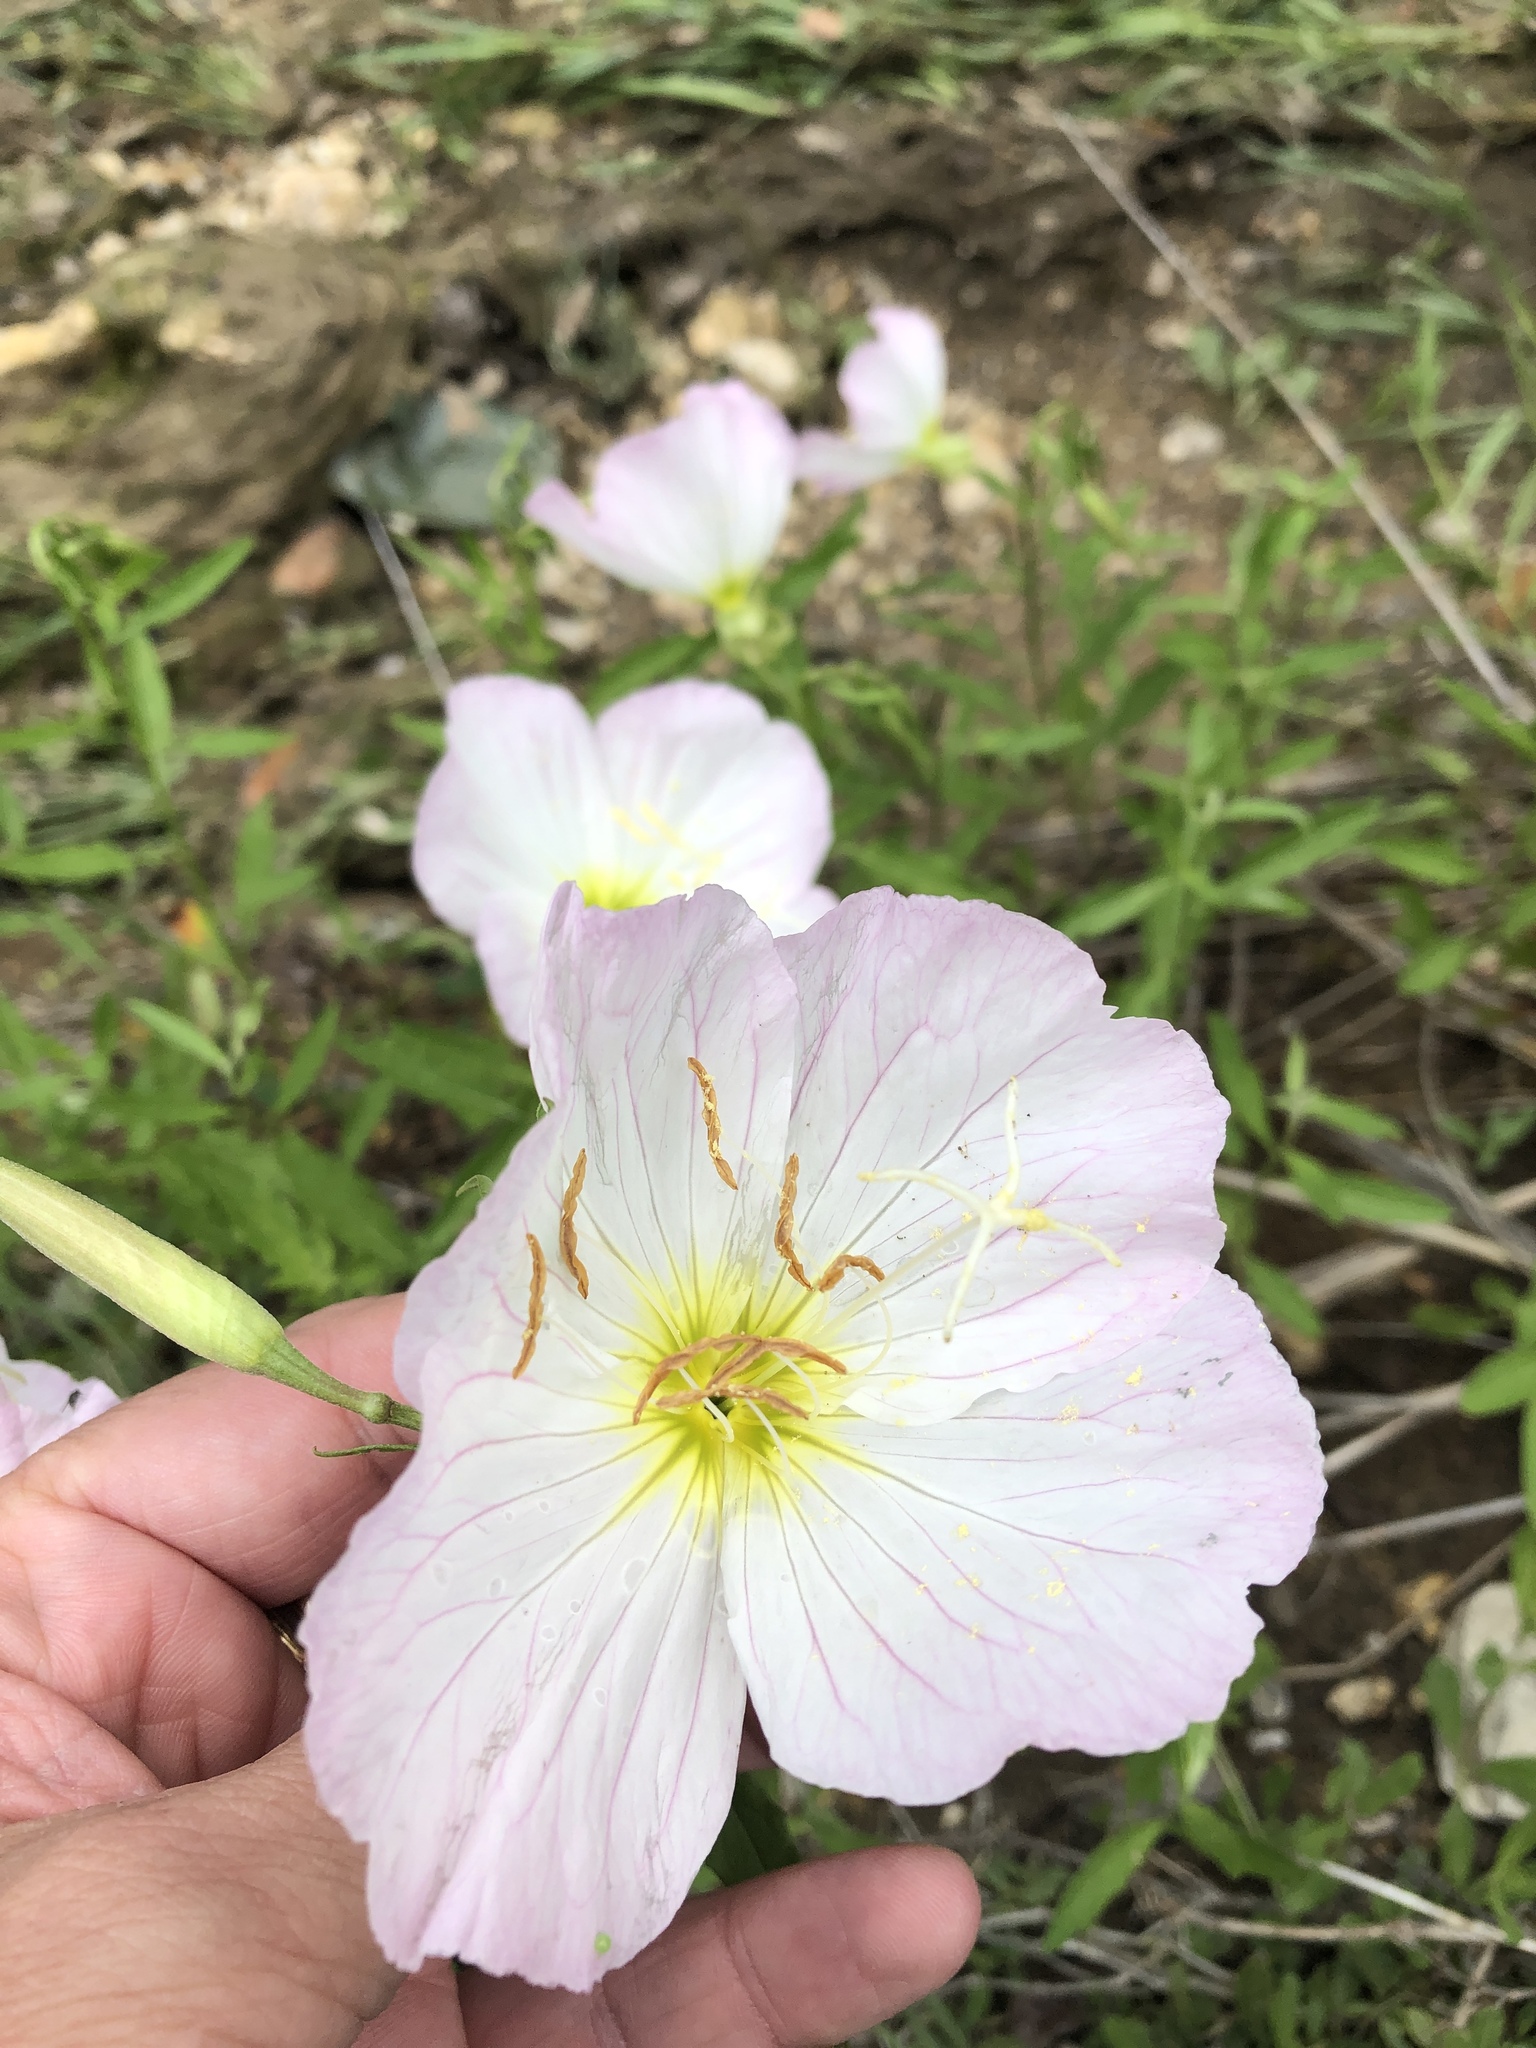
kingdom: Plantae
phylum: Tracheophyta
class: Magnoliopsida
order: Myrtales
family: Onagraceae
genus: Oenothera
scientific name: Oenothera speciosa
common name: White evening-primrose
